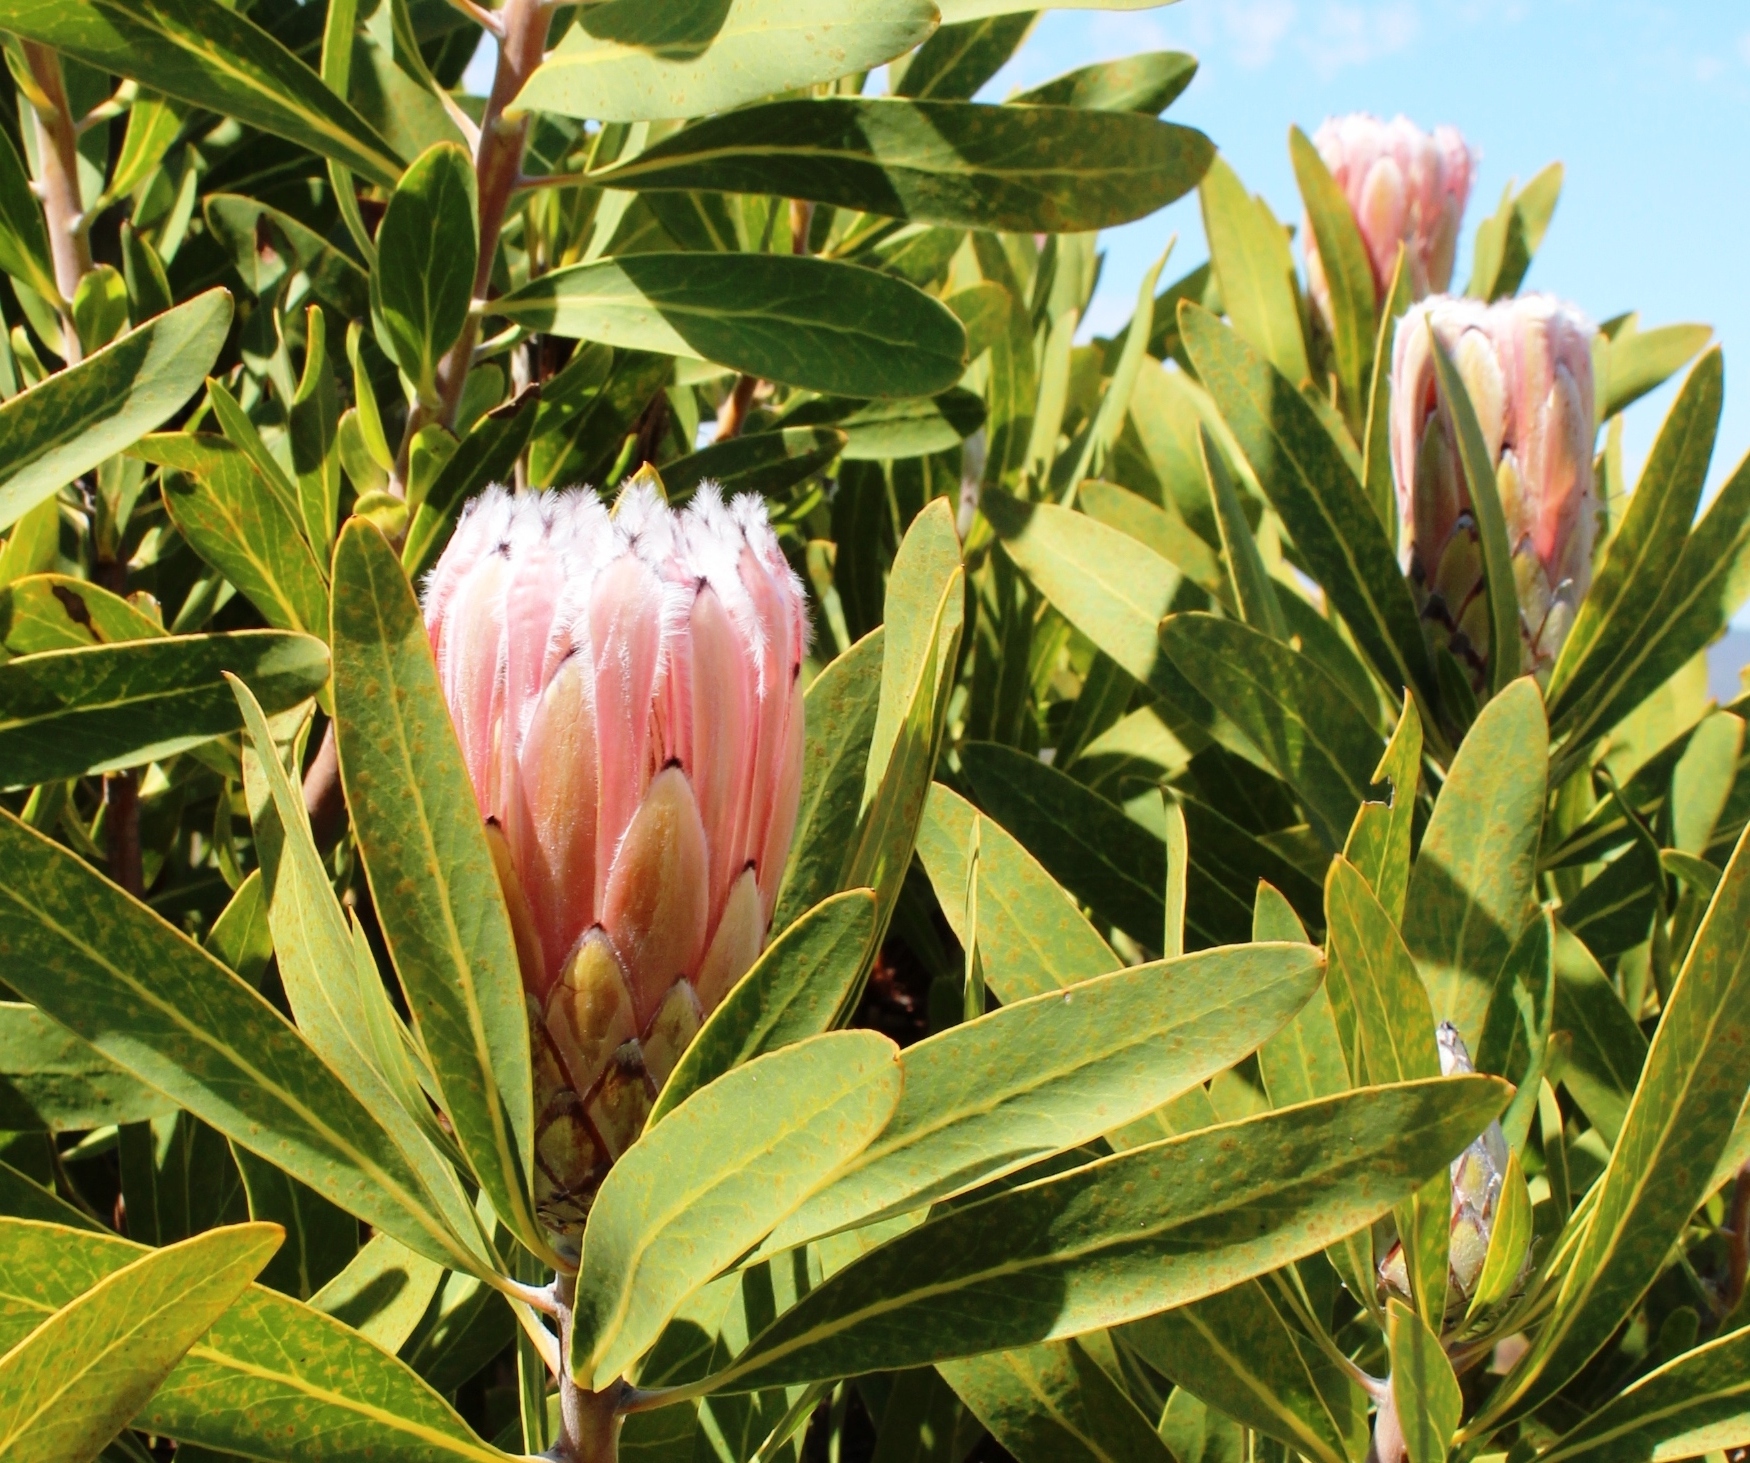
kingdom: Plantae
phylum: Tracheophyta
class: Magnoliopsida
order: Proteales
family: Proteaceae
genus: Protea
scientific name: Protea laurifolia
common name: Grey-leaf sugarbsh
